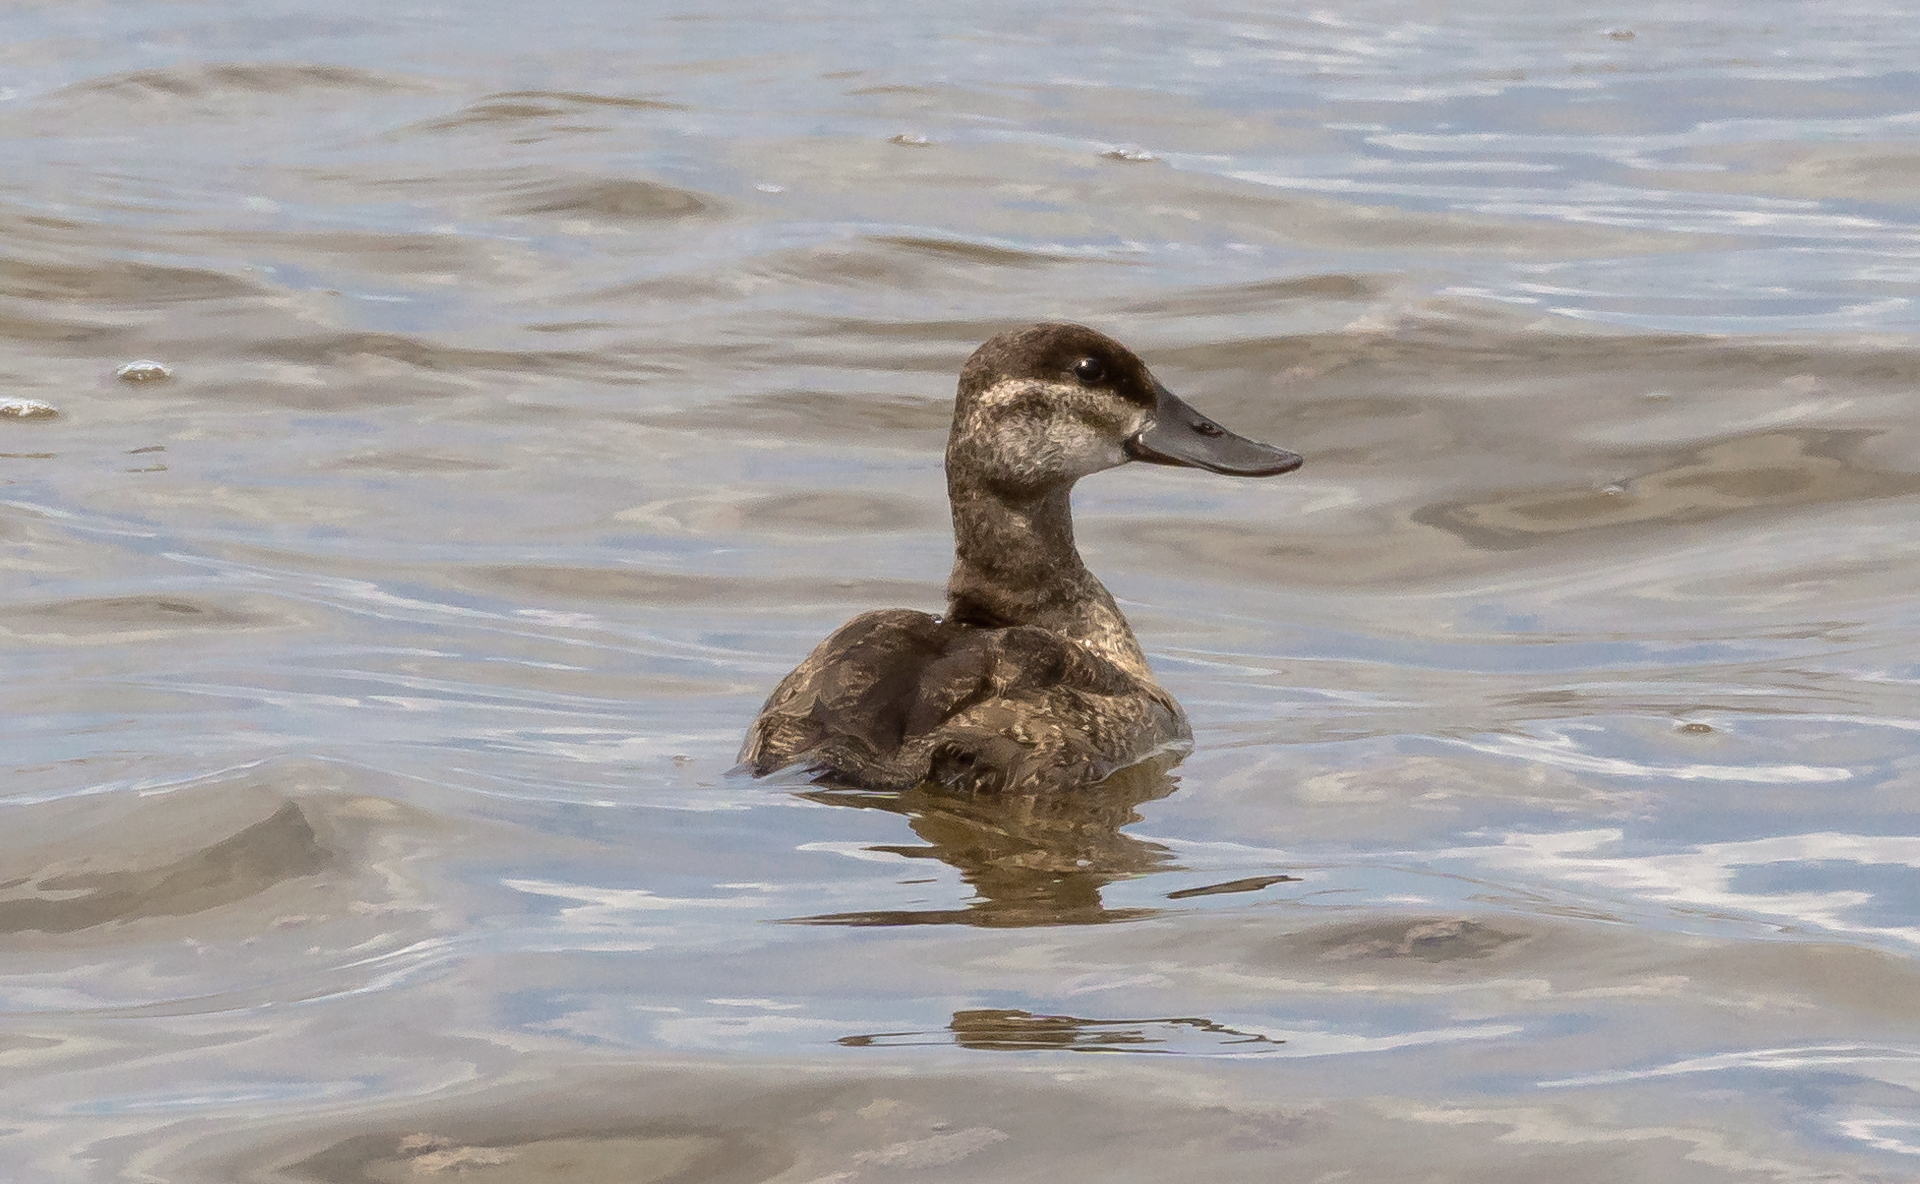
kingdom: Animalia
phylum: Chordata
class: Aves
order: Anseriformes
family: Anatidae
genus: Oxyura
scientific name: Oxyura jamaicensis
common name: Ruddy duck
